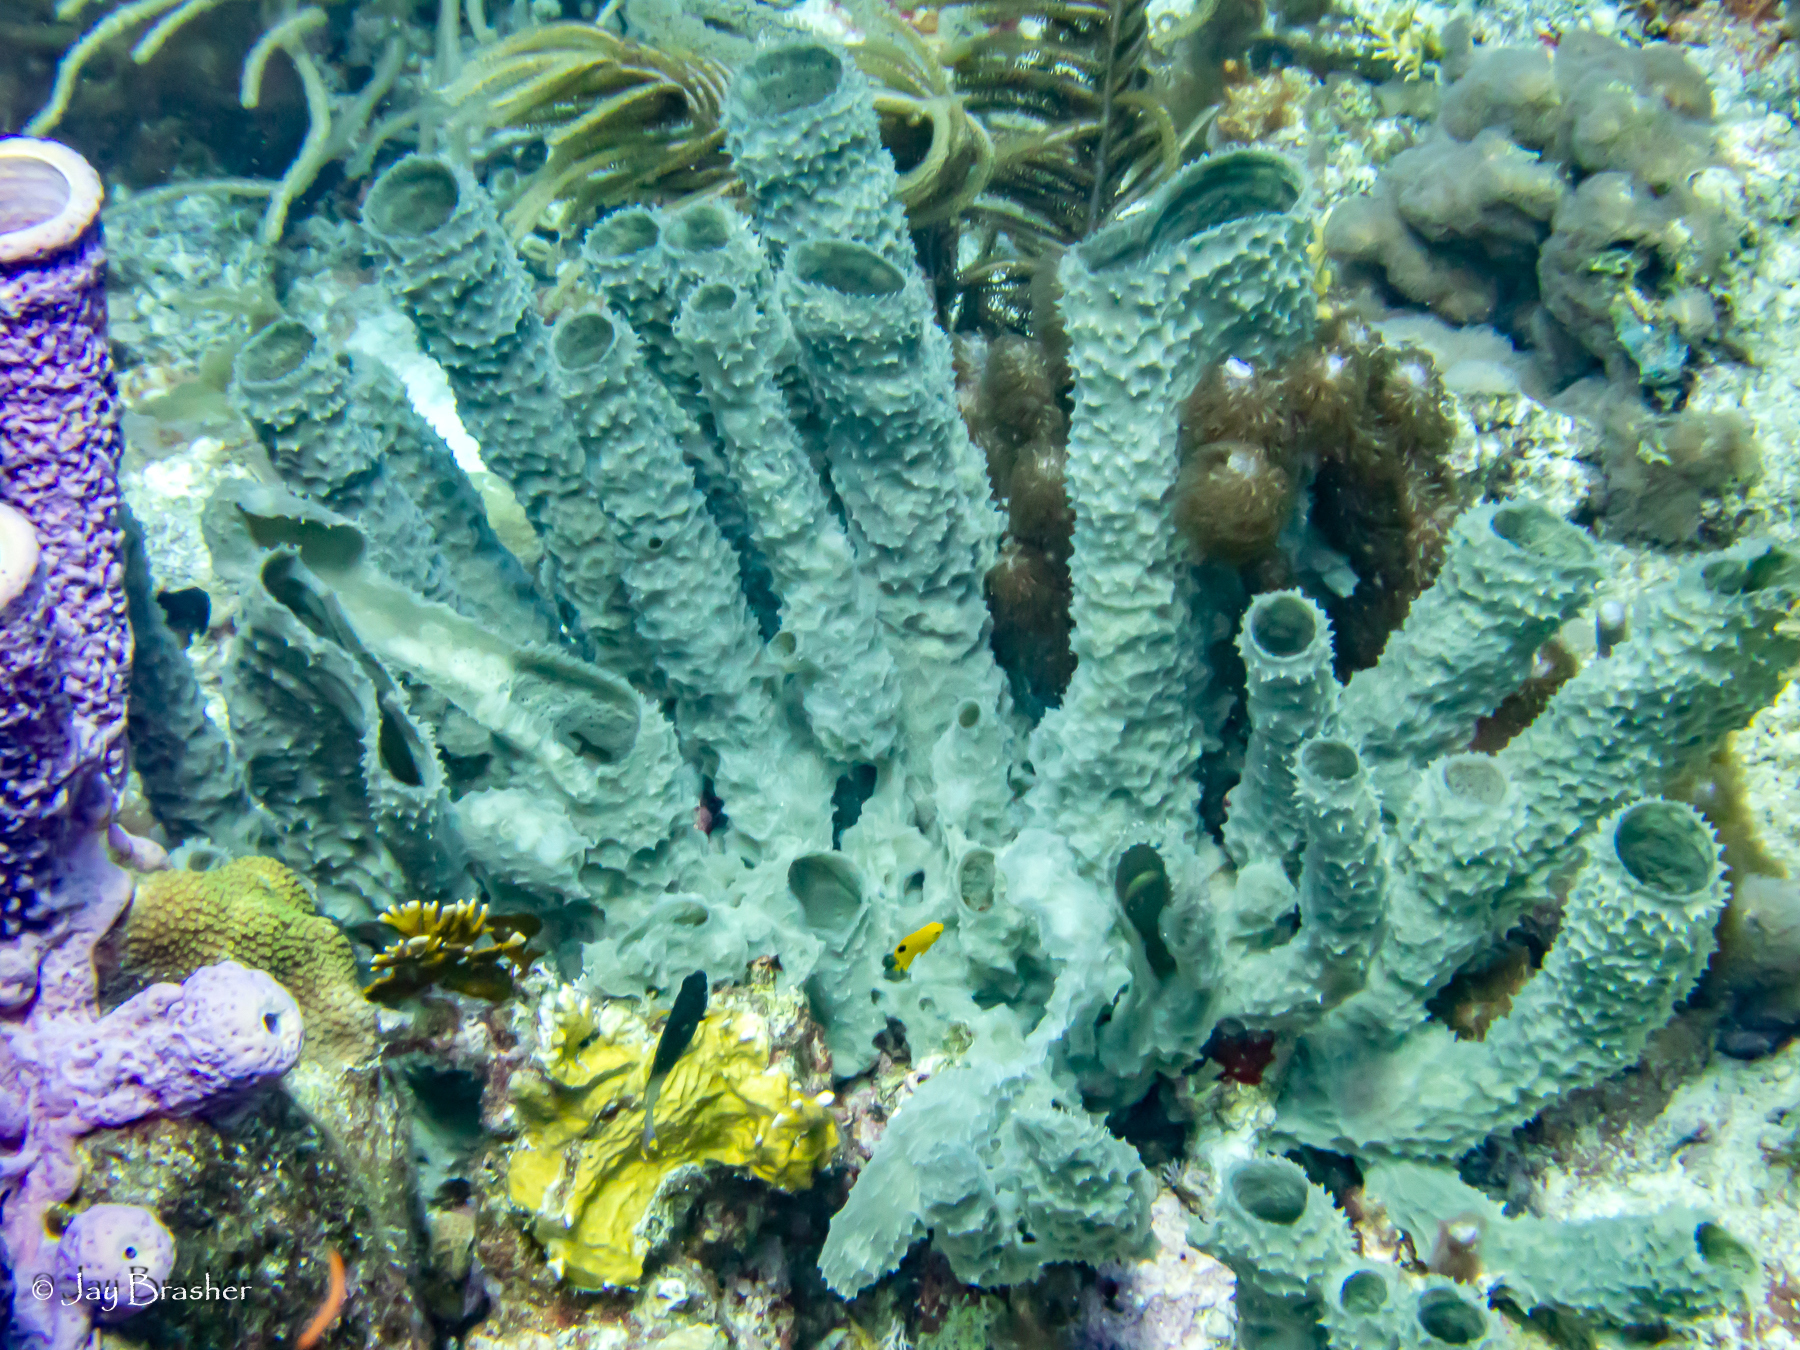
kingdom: Animalia
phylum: Porifera
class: Demospongiae
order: Haplosclerida
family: Callyspongiidae
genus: Callyspongia
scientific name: Callyspongia aculeata
